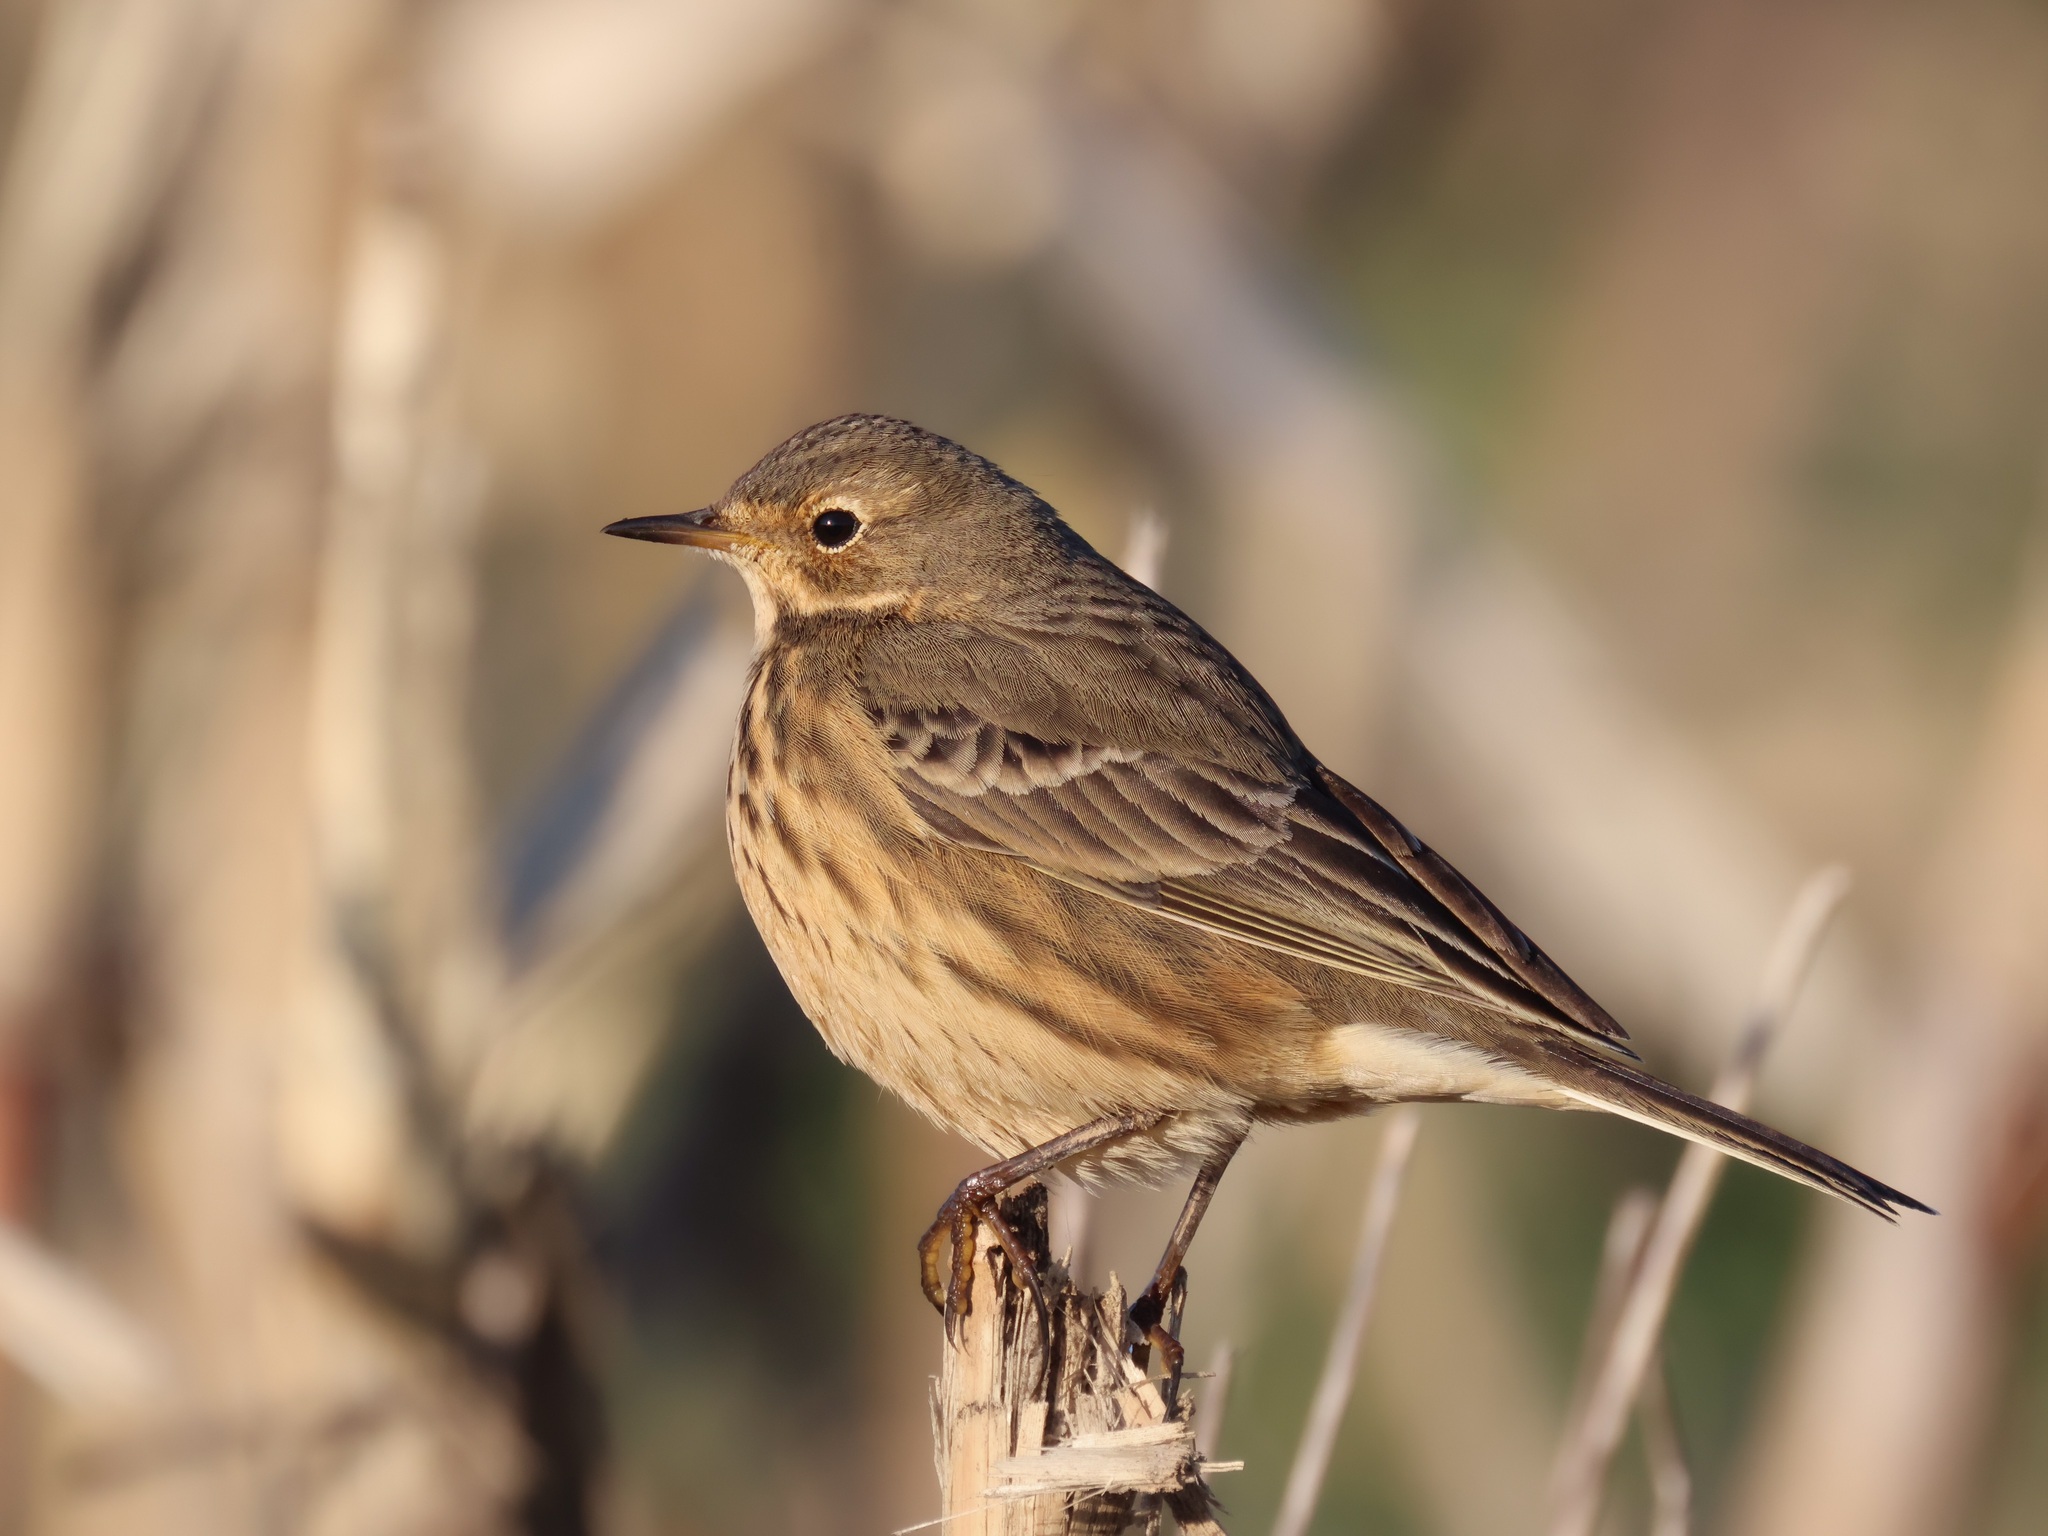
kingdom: Animalia
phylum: Chordata
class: Aves
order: Passeriformes
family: Motacillidae
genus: Anthus
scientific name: Anthus rubescens
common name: Buff-bellied pipit
